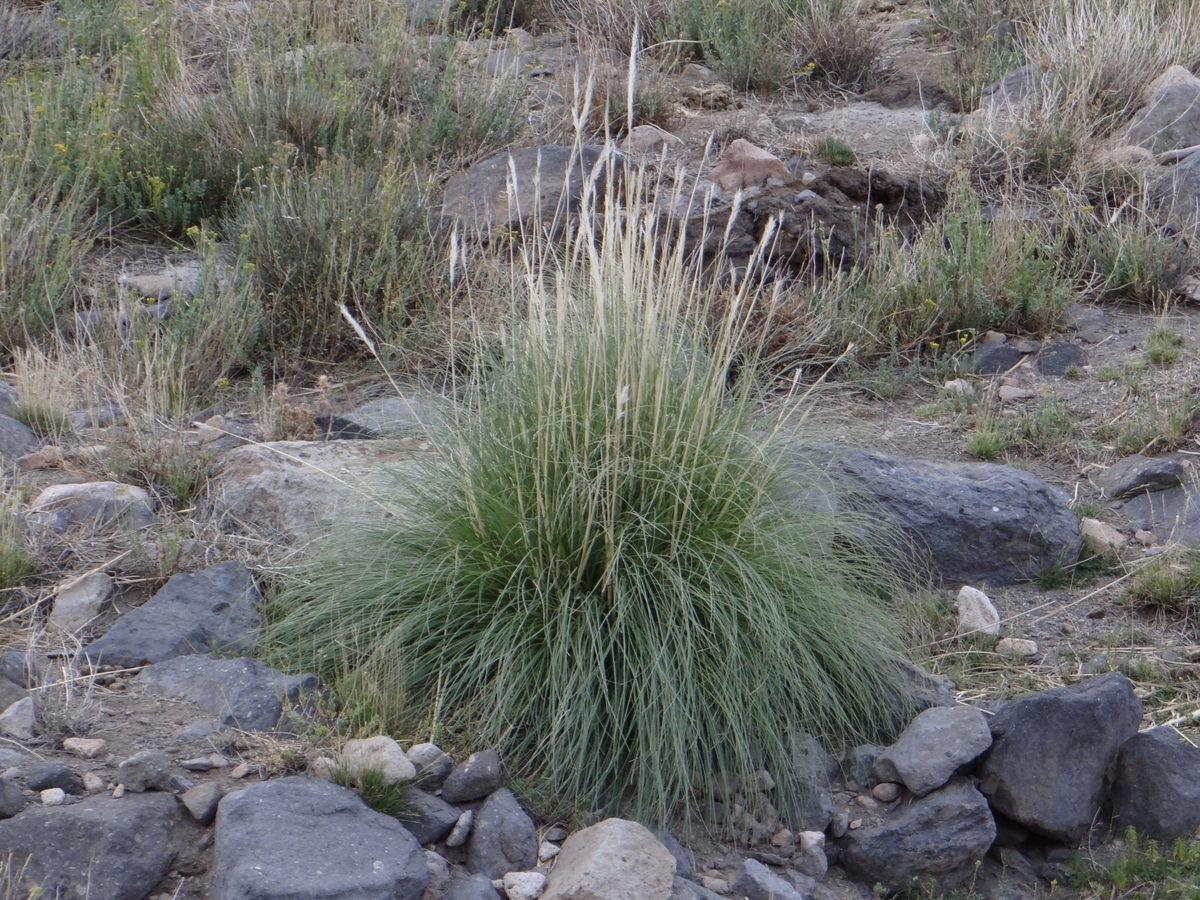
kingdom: Plantae
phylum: Tracheophyta
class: Liliopsida
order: Poales
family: Poaceae
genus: Cortaderia
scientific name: Cortaderia rudiuscula
